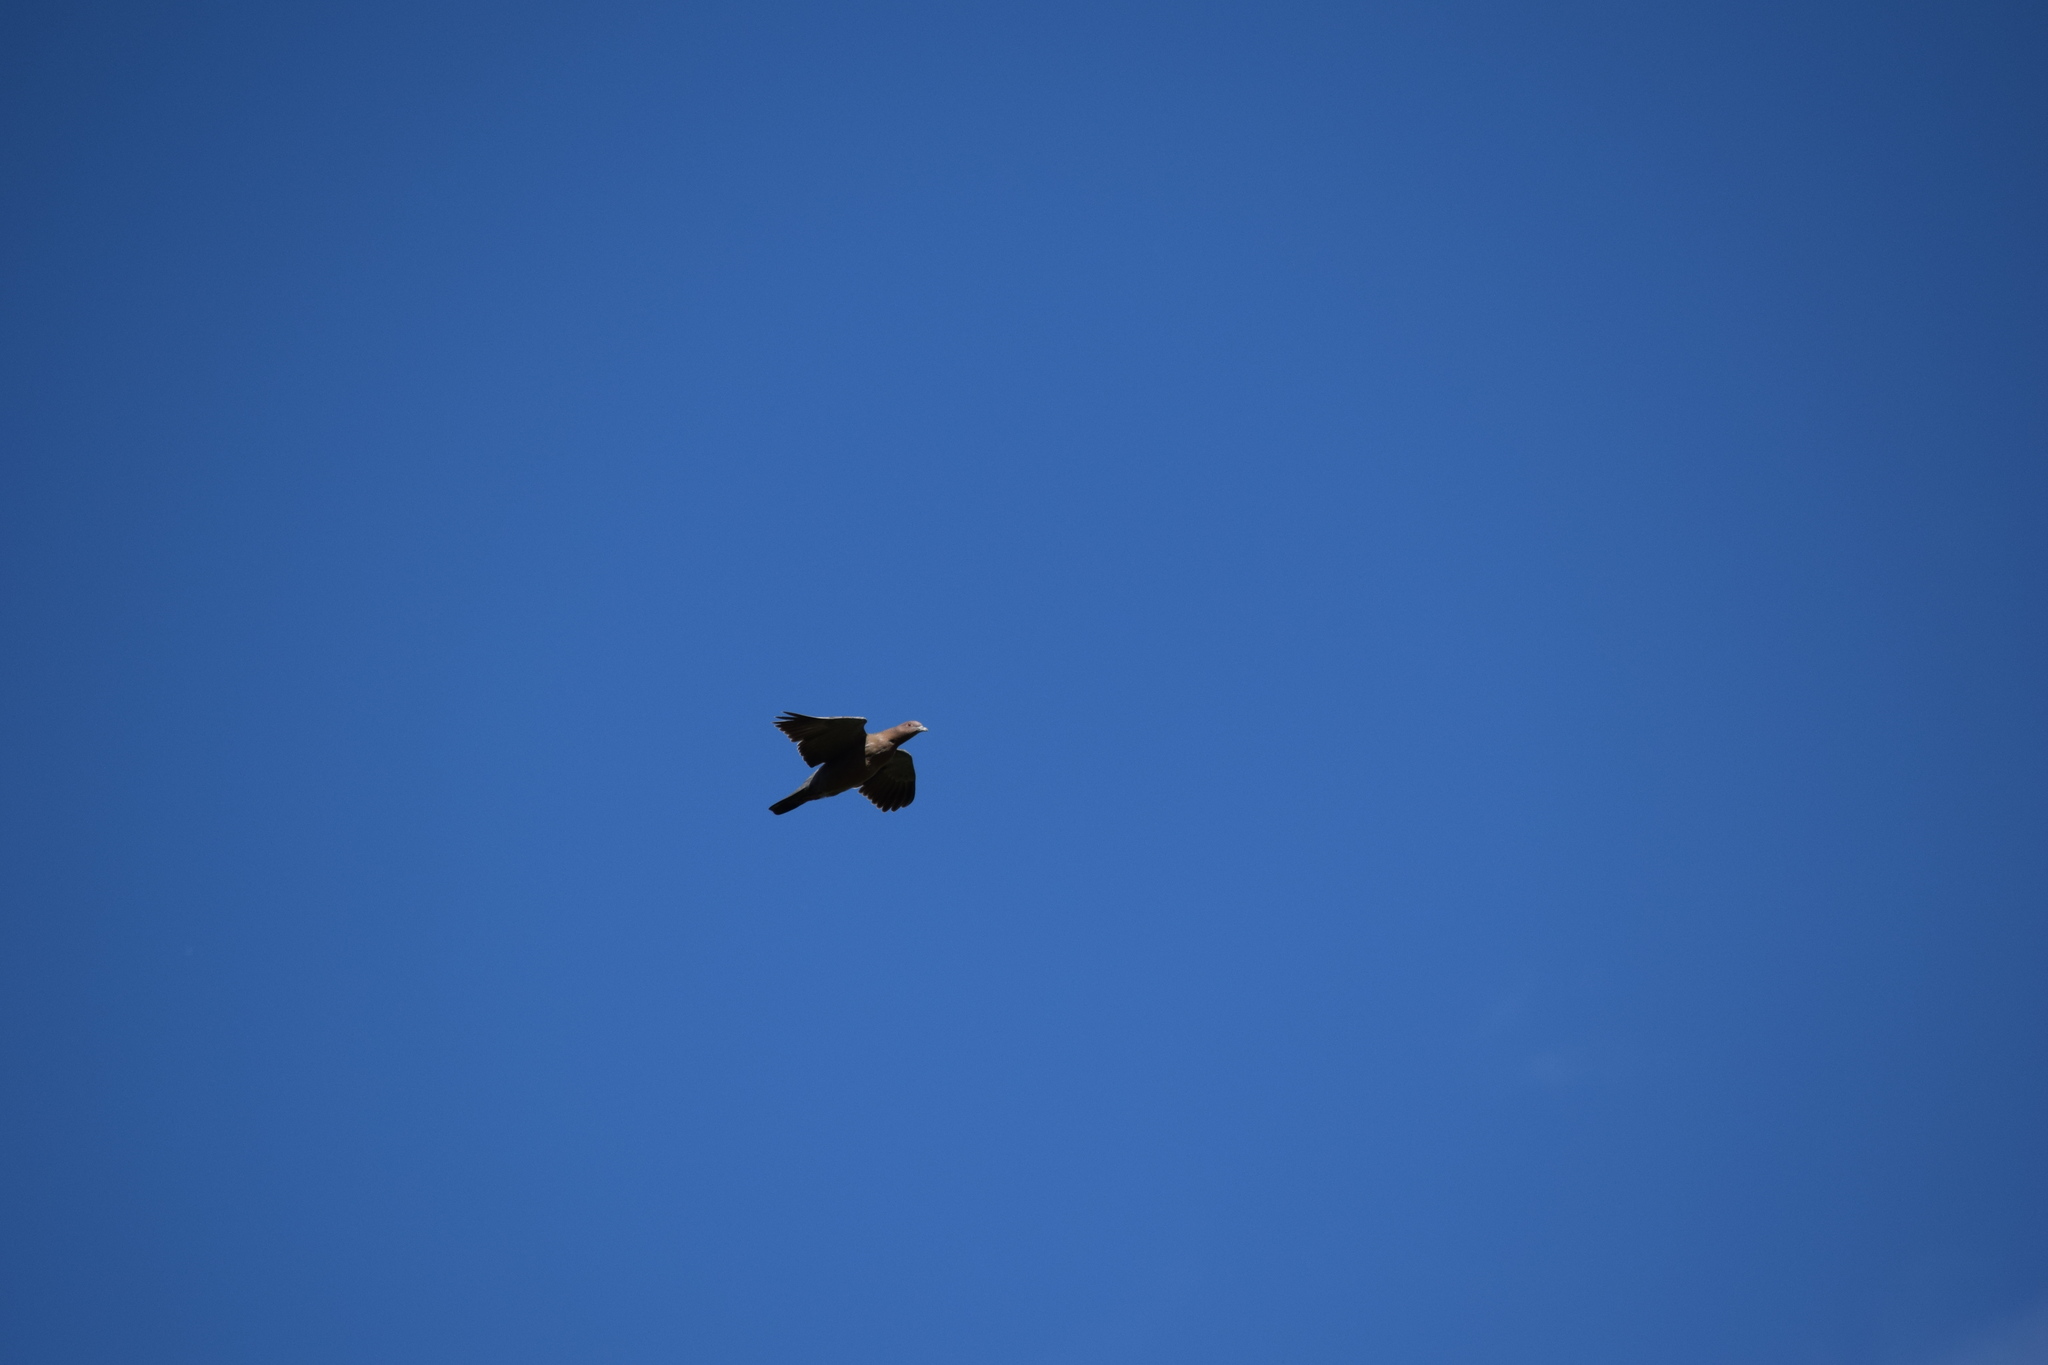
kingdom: Animalia
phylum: Chordata
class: Aves
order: Columbiformes
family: Columbidae
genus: Patagioenas
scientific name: Patagioenas picazuro
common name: Picazuro pigeon
